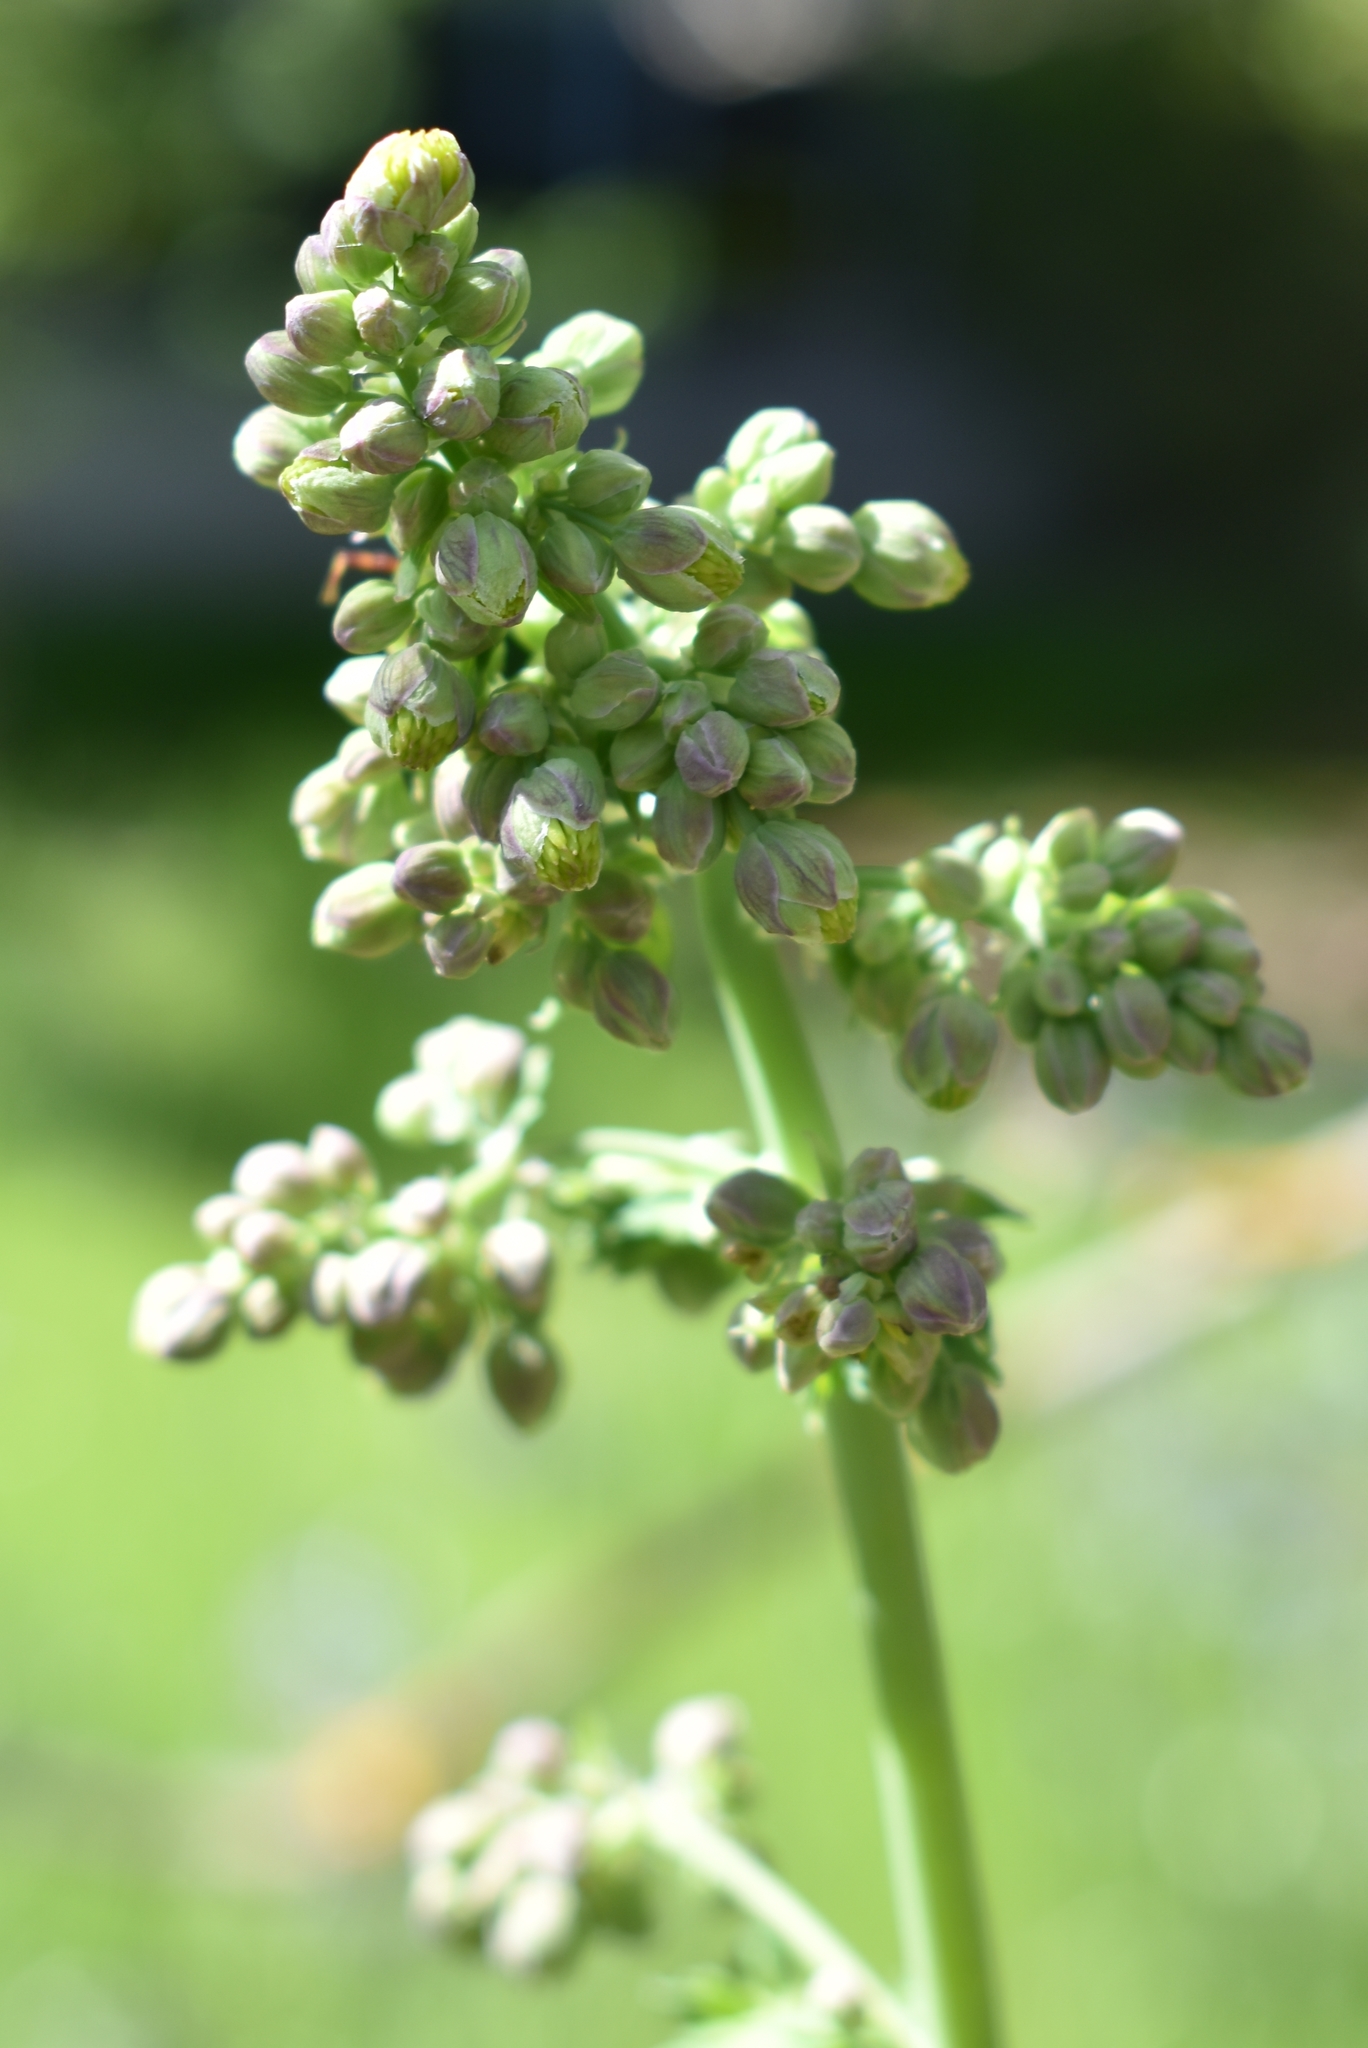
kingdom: Plantae
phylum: Tracheophyta
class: Magnoliopsida
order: Ranunculales
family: Ranunculaceae
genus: Thalictrum
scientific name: Thalictrum fendleri
